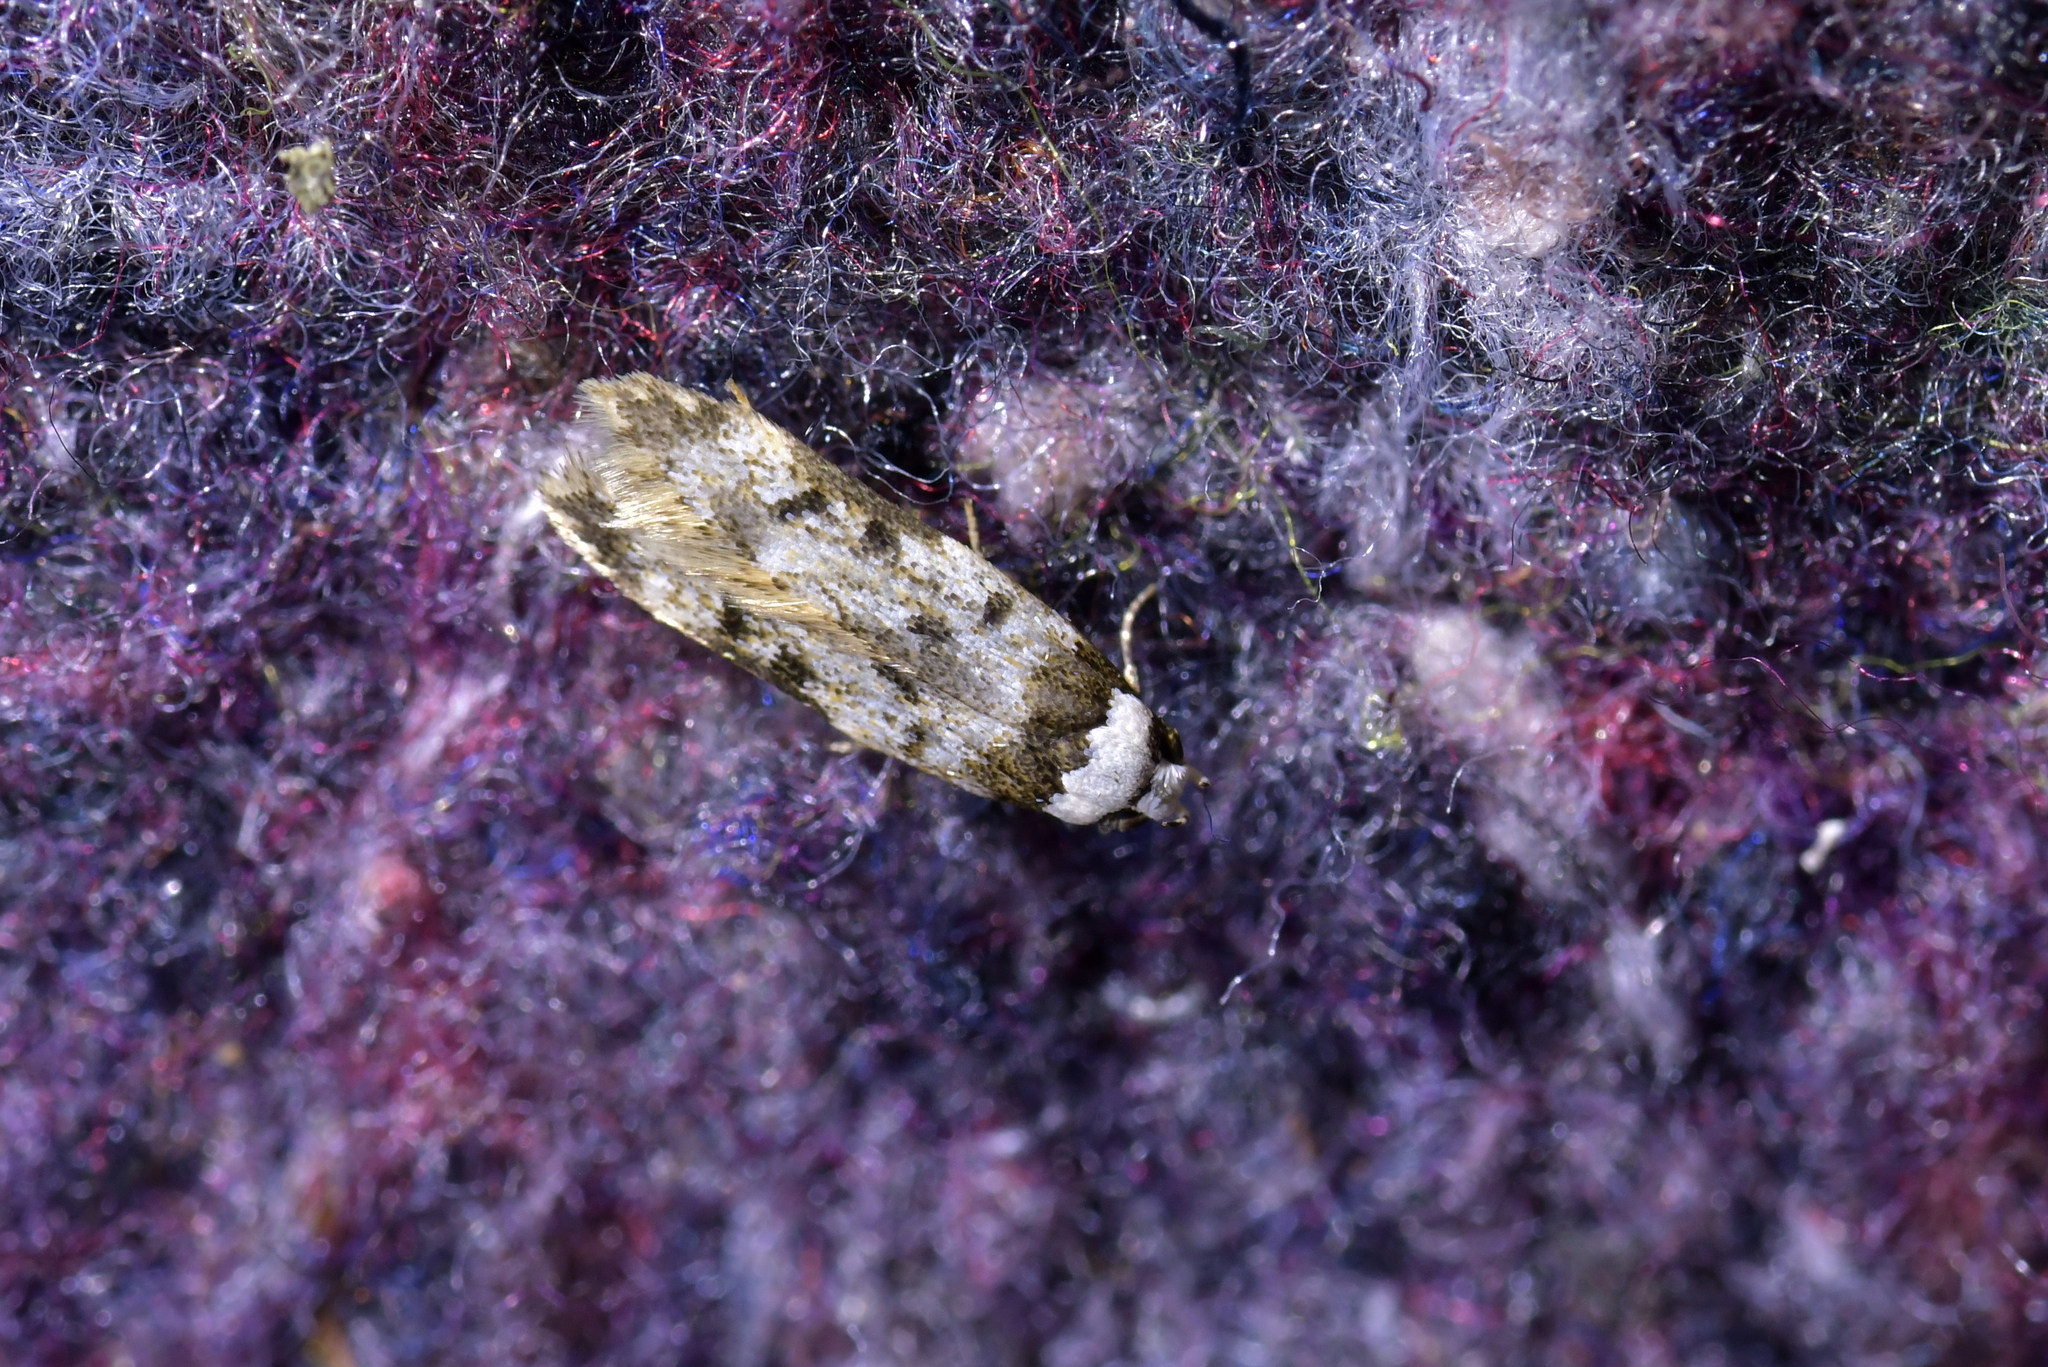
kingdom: Animalia
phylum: Arthropoda
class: Insecta
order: Lepidoptera
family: Oecophoridae
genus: Endrosis
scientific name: Endrosis sarcitrella
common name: White-shouldered house moth
